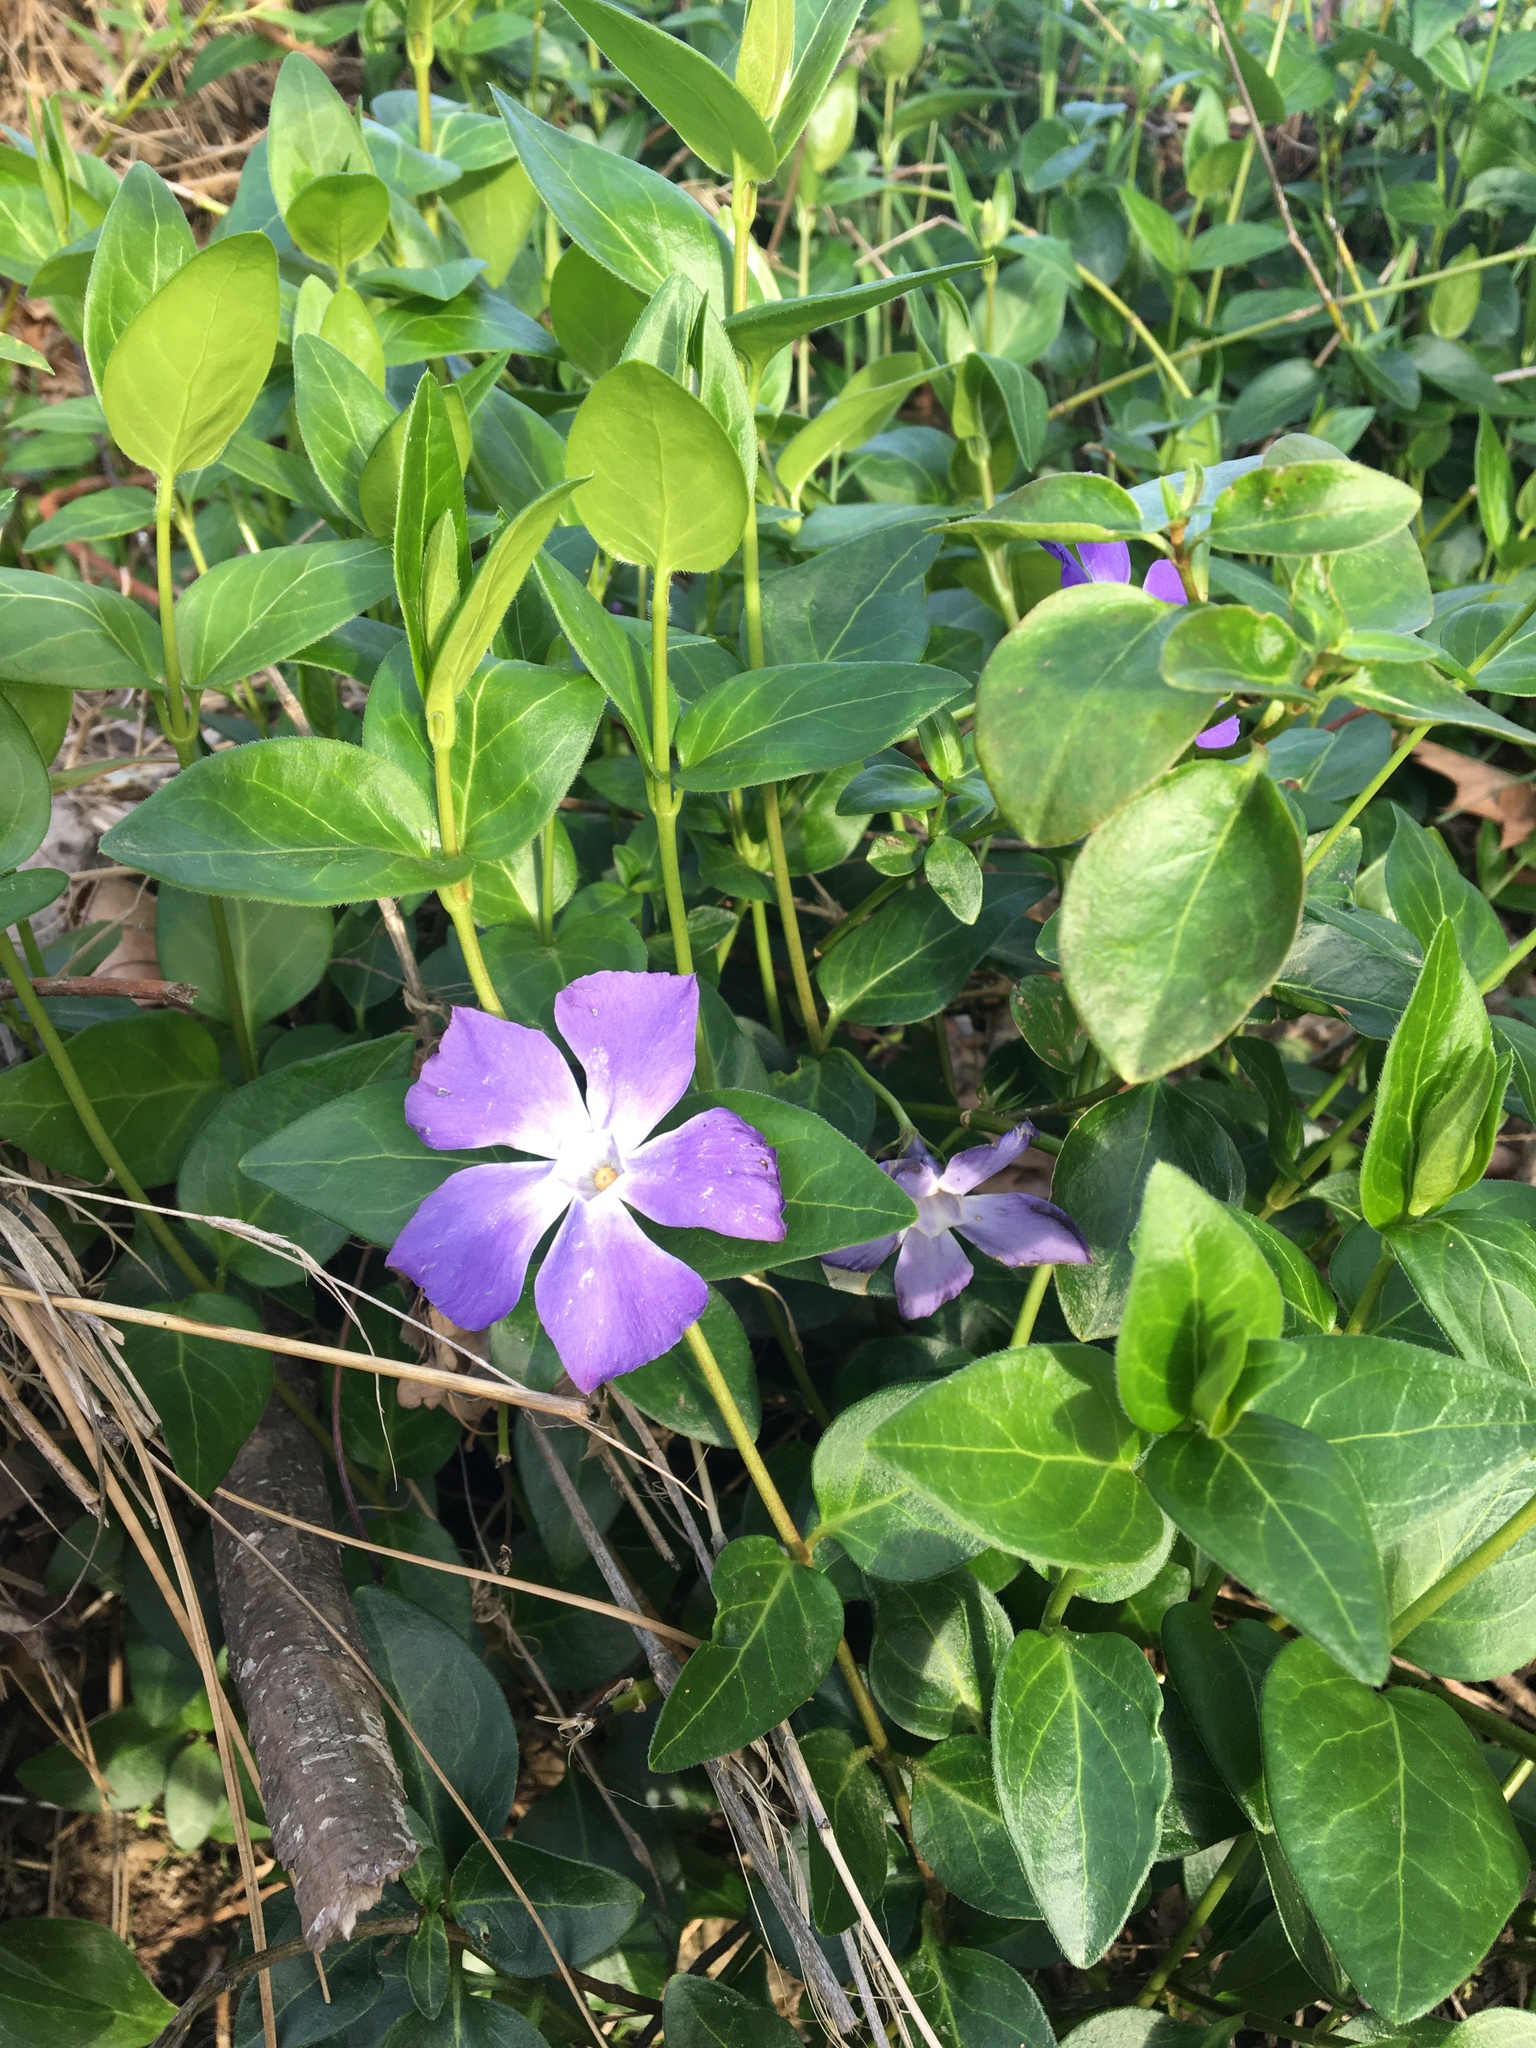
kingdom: Plantae
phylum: Tracheophyta
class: Magnoliopsida
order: Gentianales
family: Apocynaceae
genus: Vinca
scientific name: Vinca major
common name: Greater periwinkle
